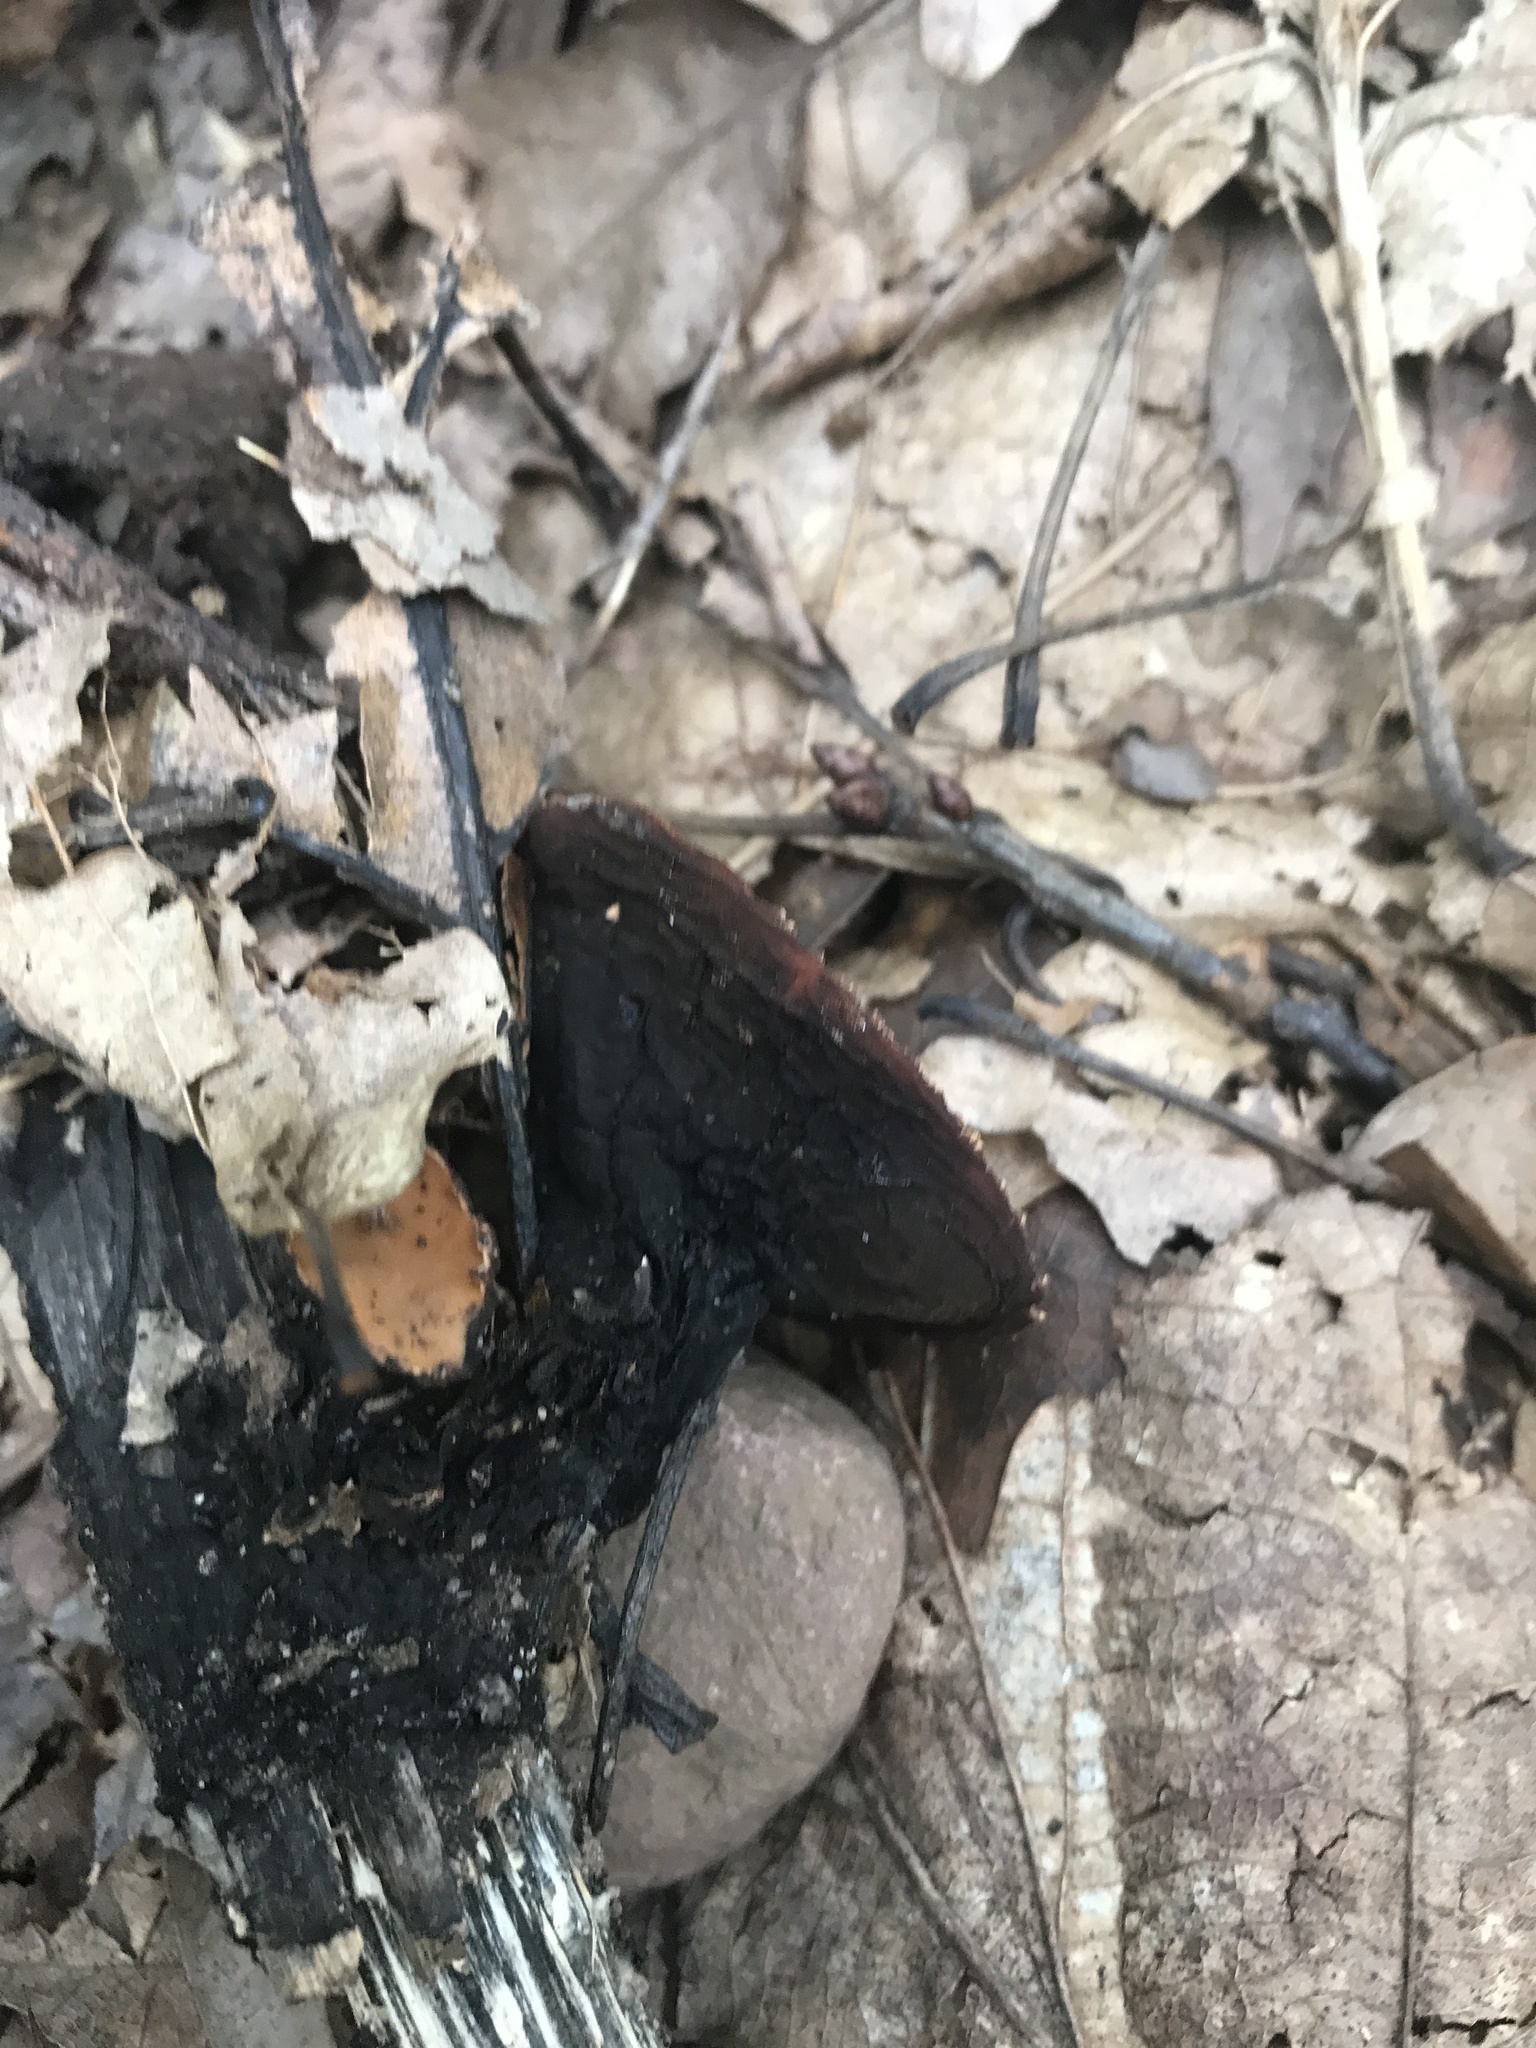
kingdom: Fungi
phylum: Ascomycota
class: Pezizomycetes
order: Pezizales
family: Sarcosomataceae
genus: Galiella
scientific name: Galiella rufa
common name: Hairy rubber cup
